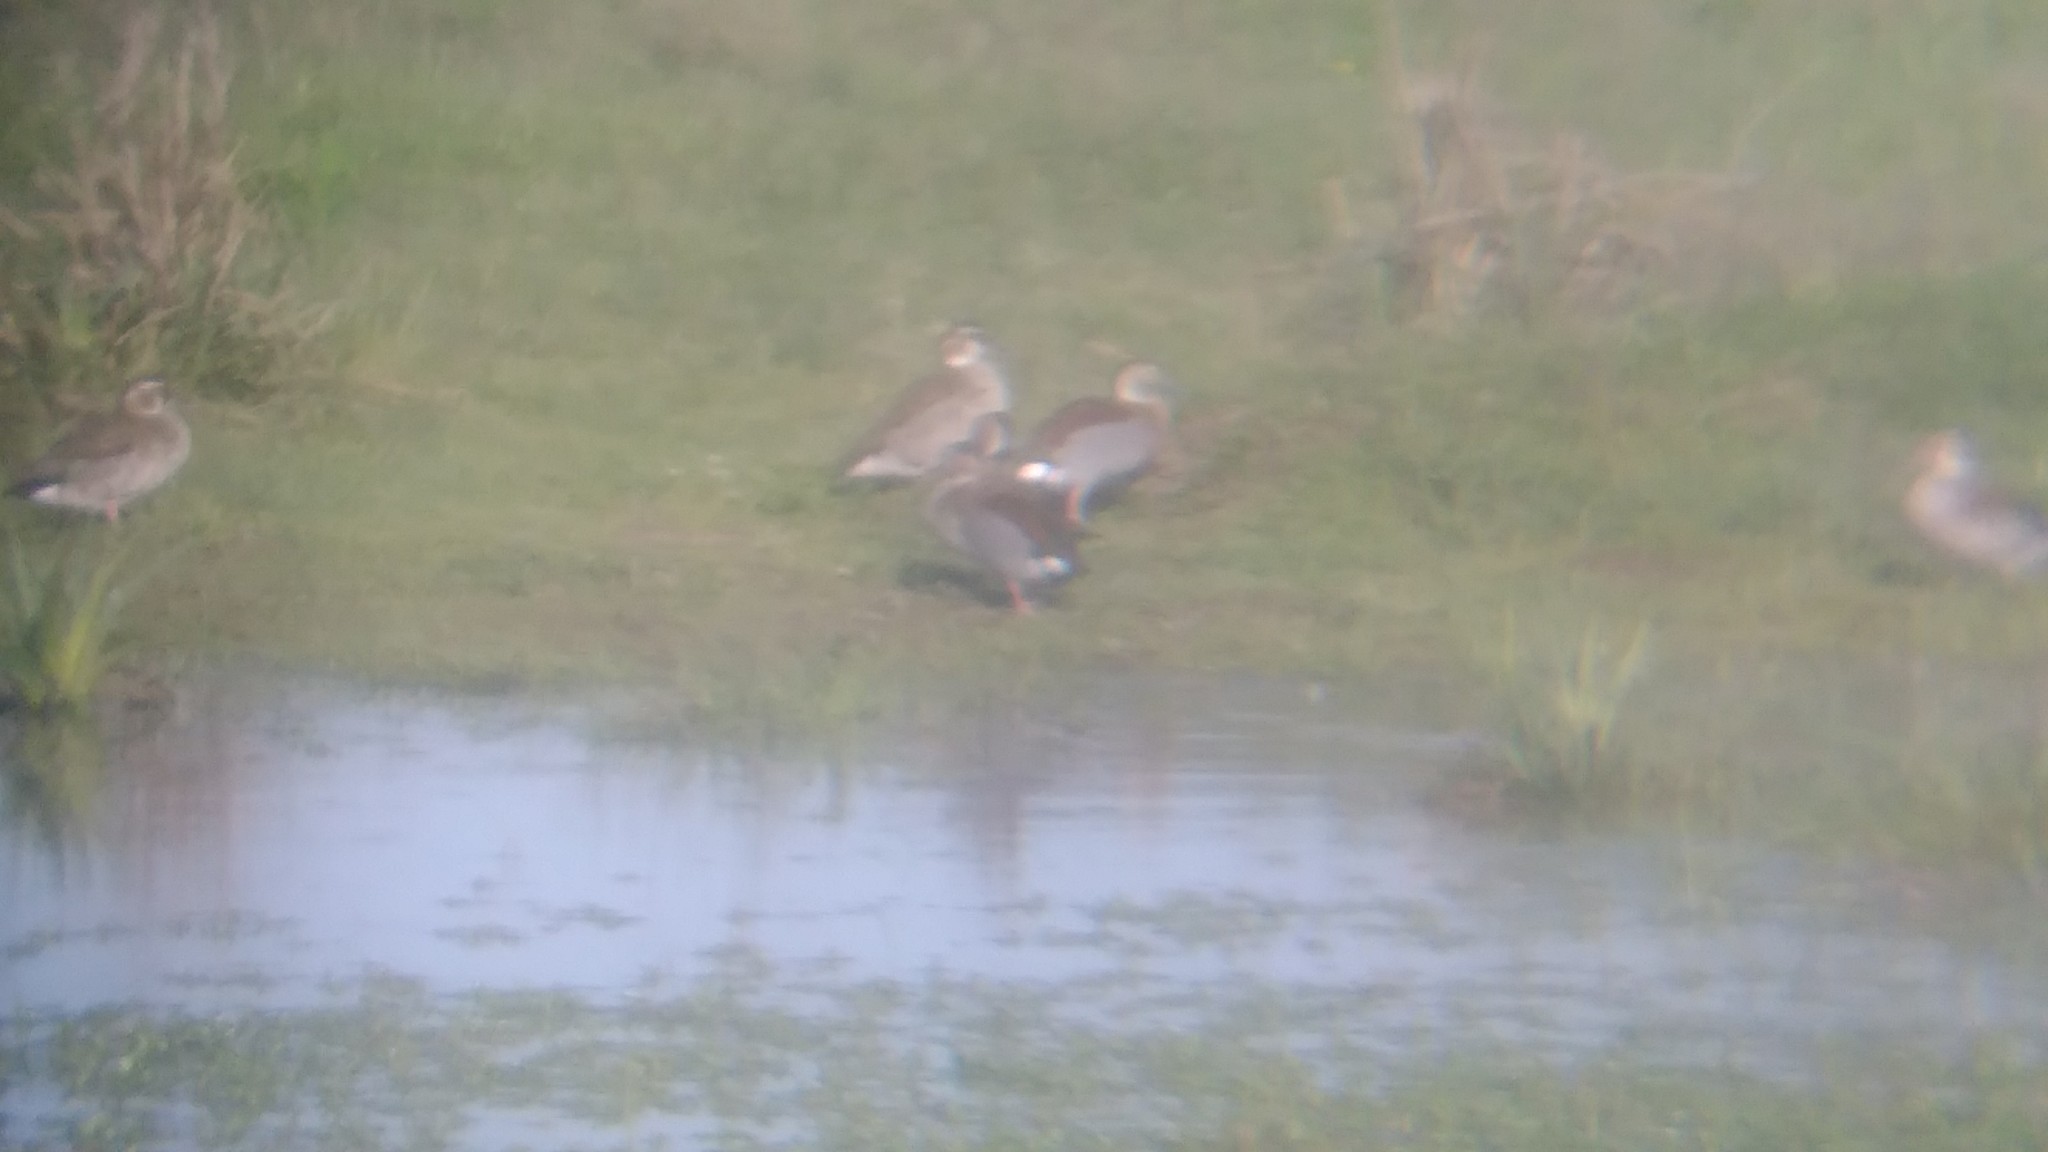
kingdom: Animalia
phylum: Chordata
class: Aves
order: Anseriformes
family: Anatidae
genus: Callonetta
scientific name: Callonetta leucophrys
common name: Ringed teal
